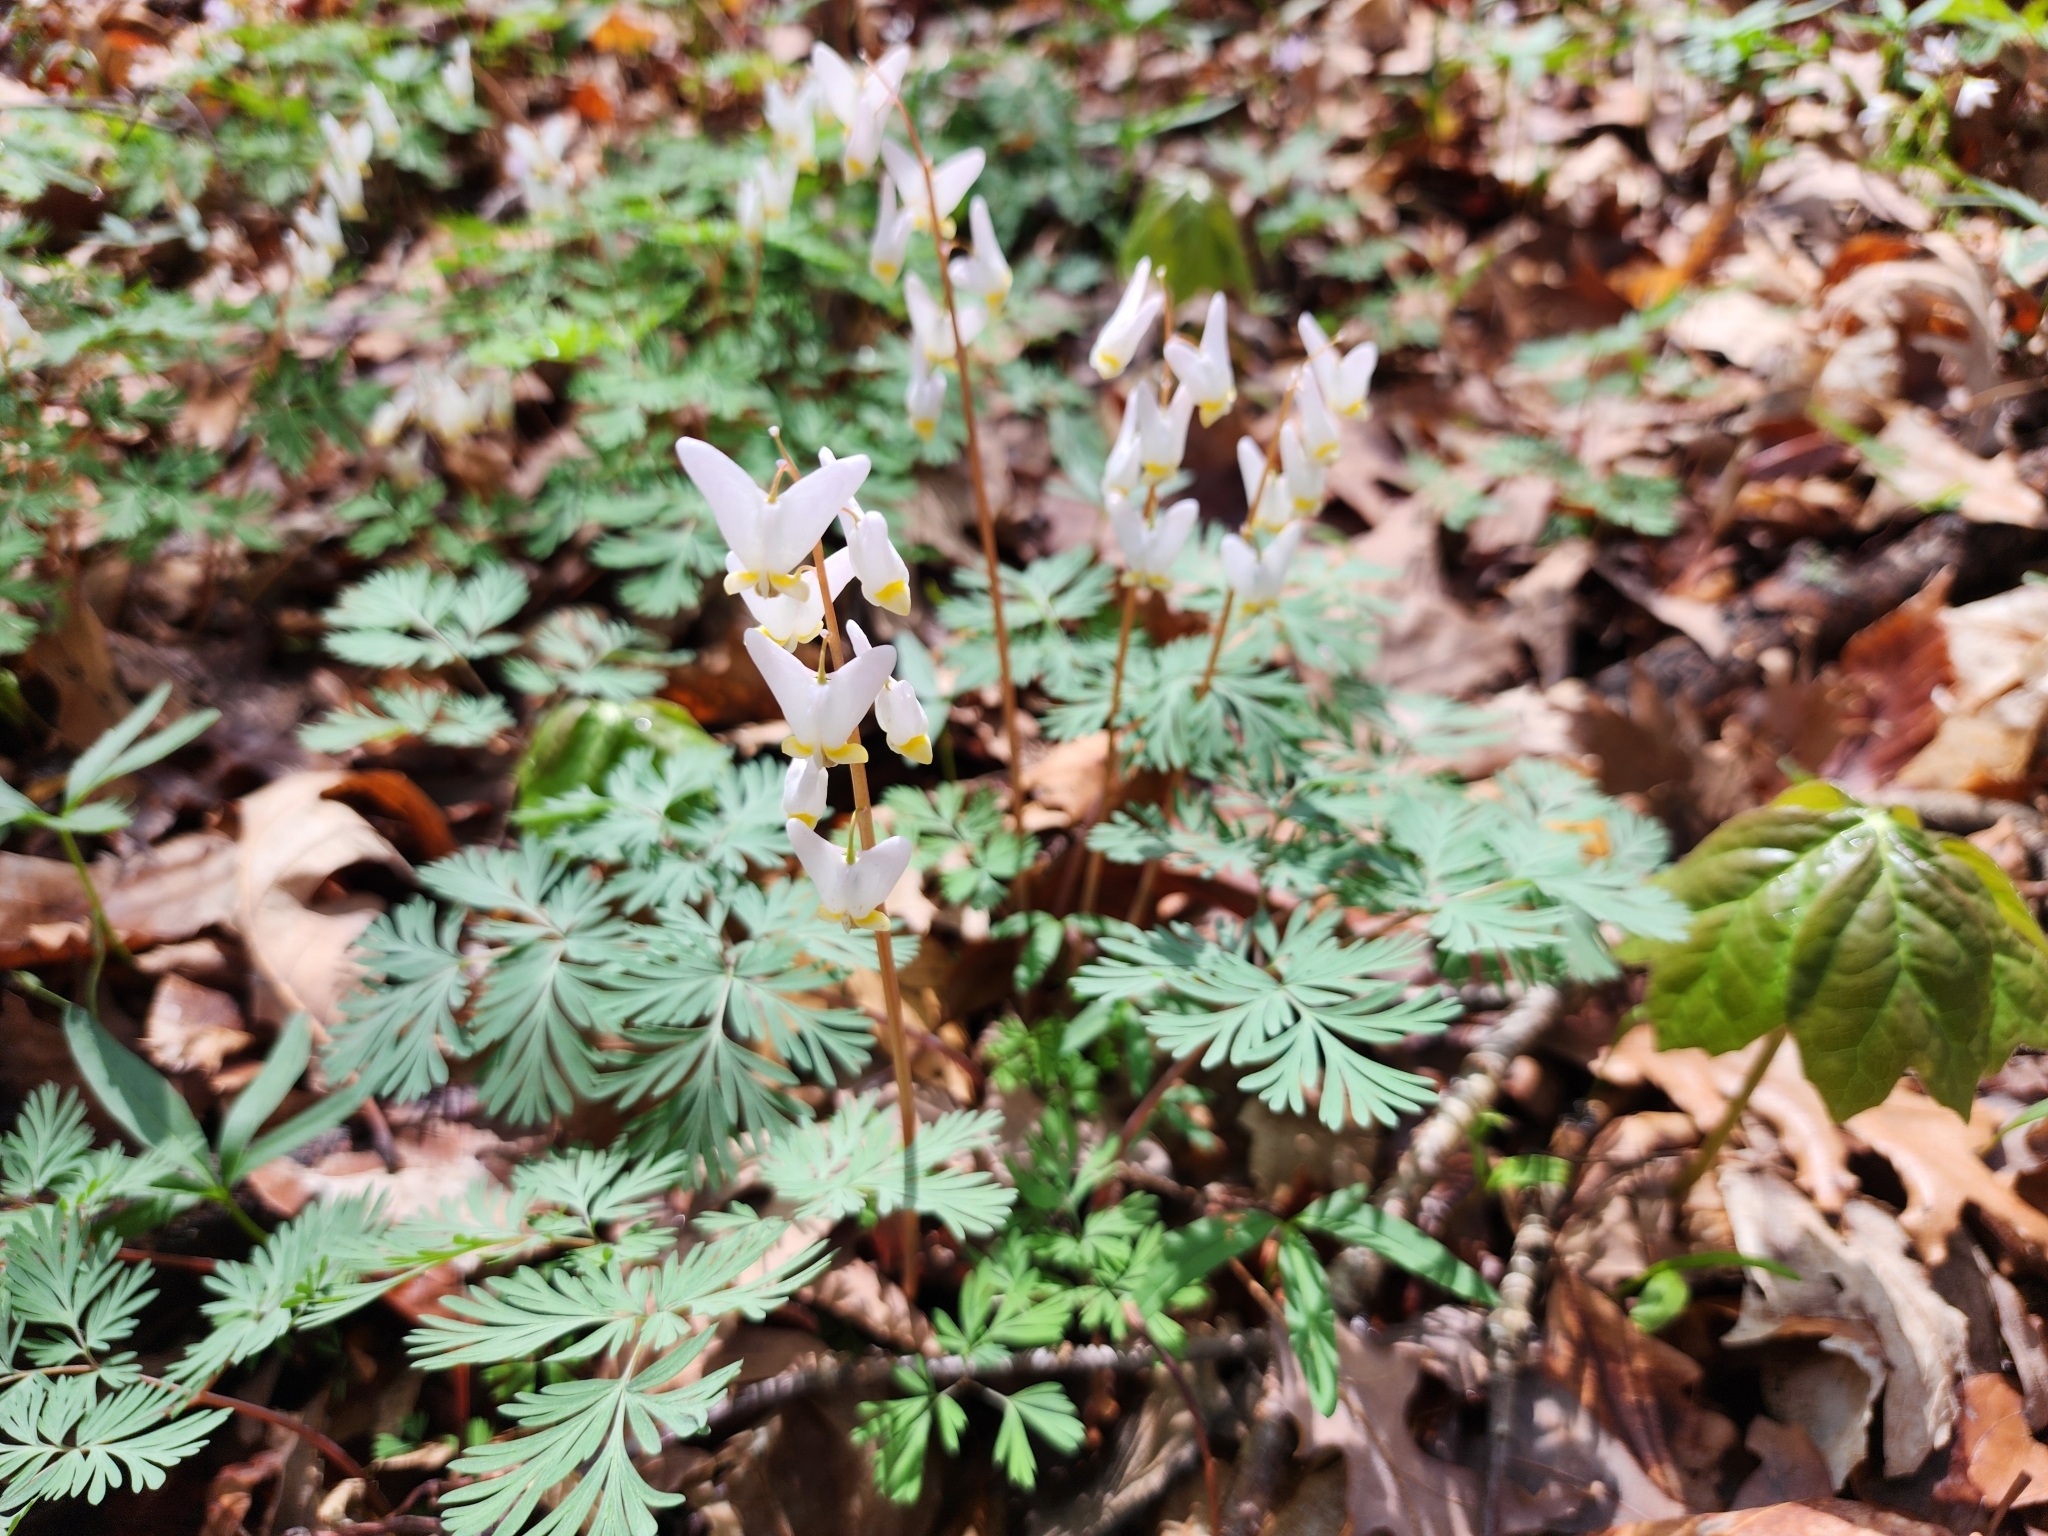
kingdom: Plantae
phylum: Tracheophyta
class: Magnoliopsida
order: Ranunculales
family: Papaveraceae
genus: Dicentra
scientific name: Dicentra cucullaria
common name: Dutchman's breeches
